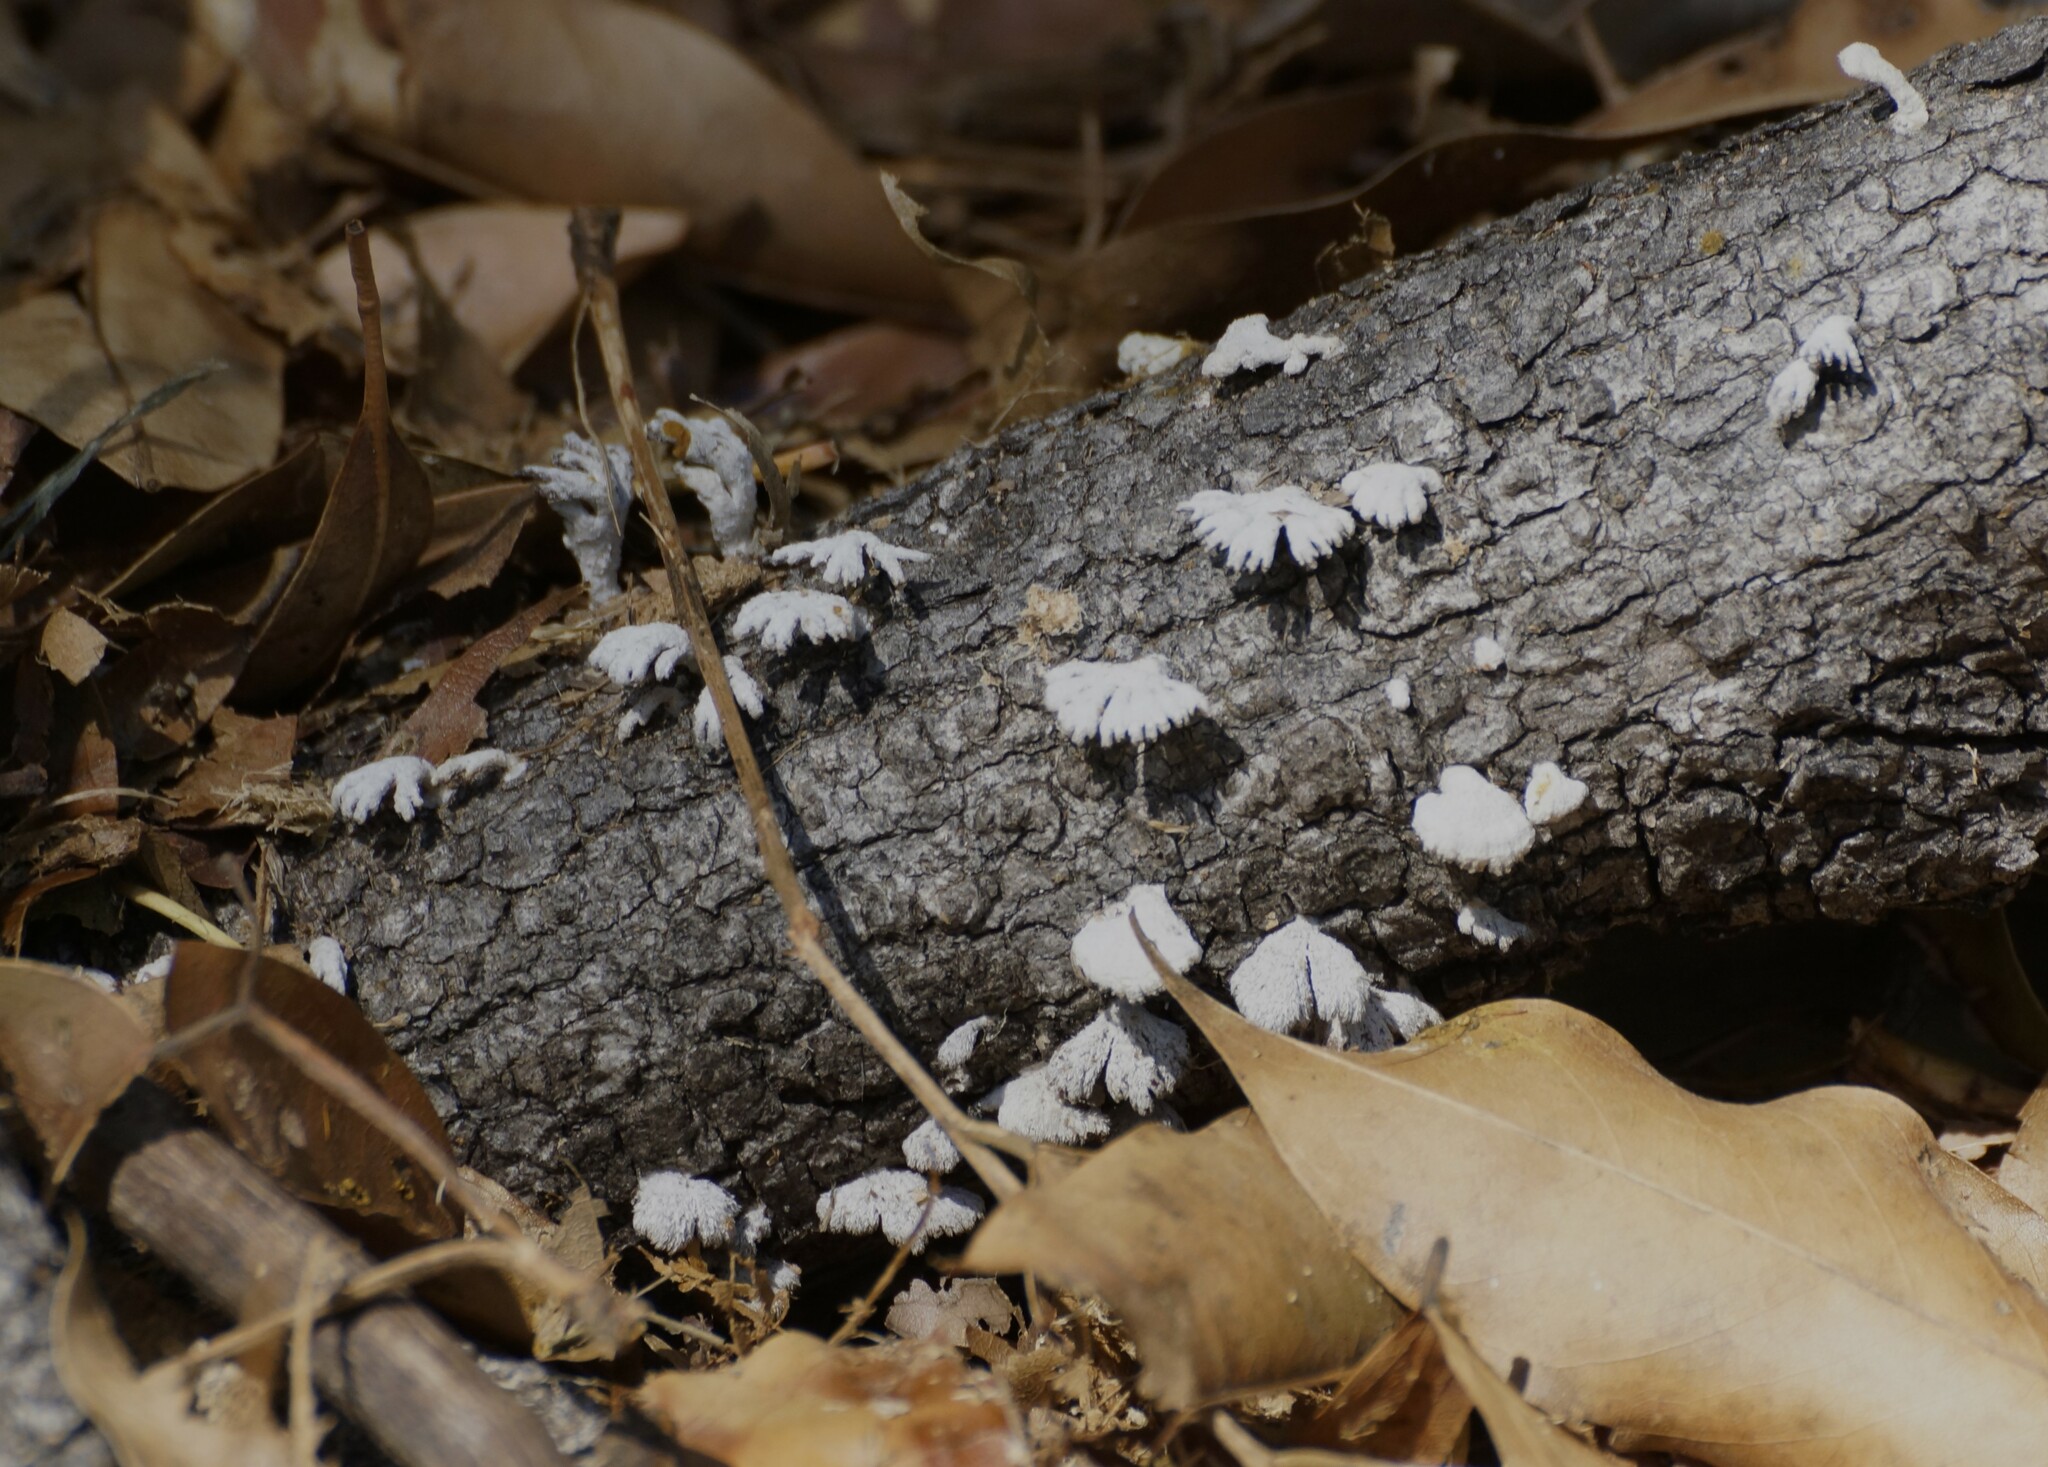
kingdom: Fungi
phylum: Basidiomycota
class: Agaricomycetes
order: Agaricales
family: Schizophyllaceae
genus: Schizophyllum
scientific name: Schizophyllum commune
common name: Common porecrust
